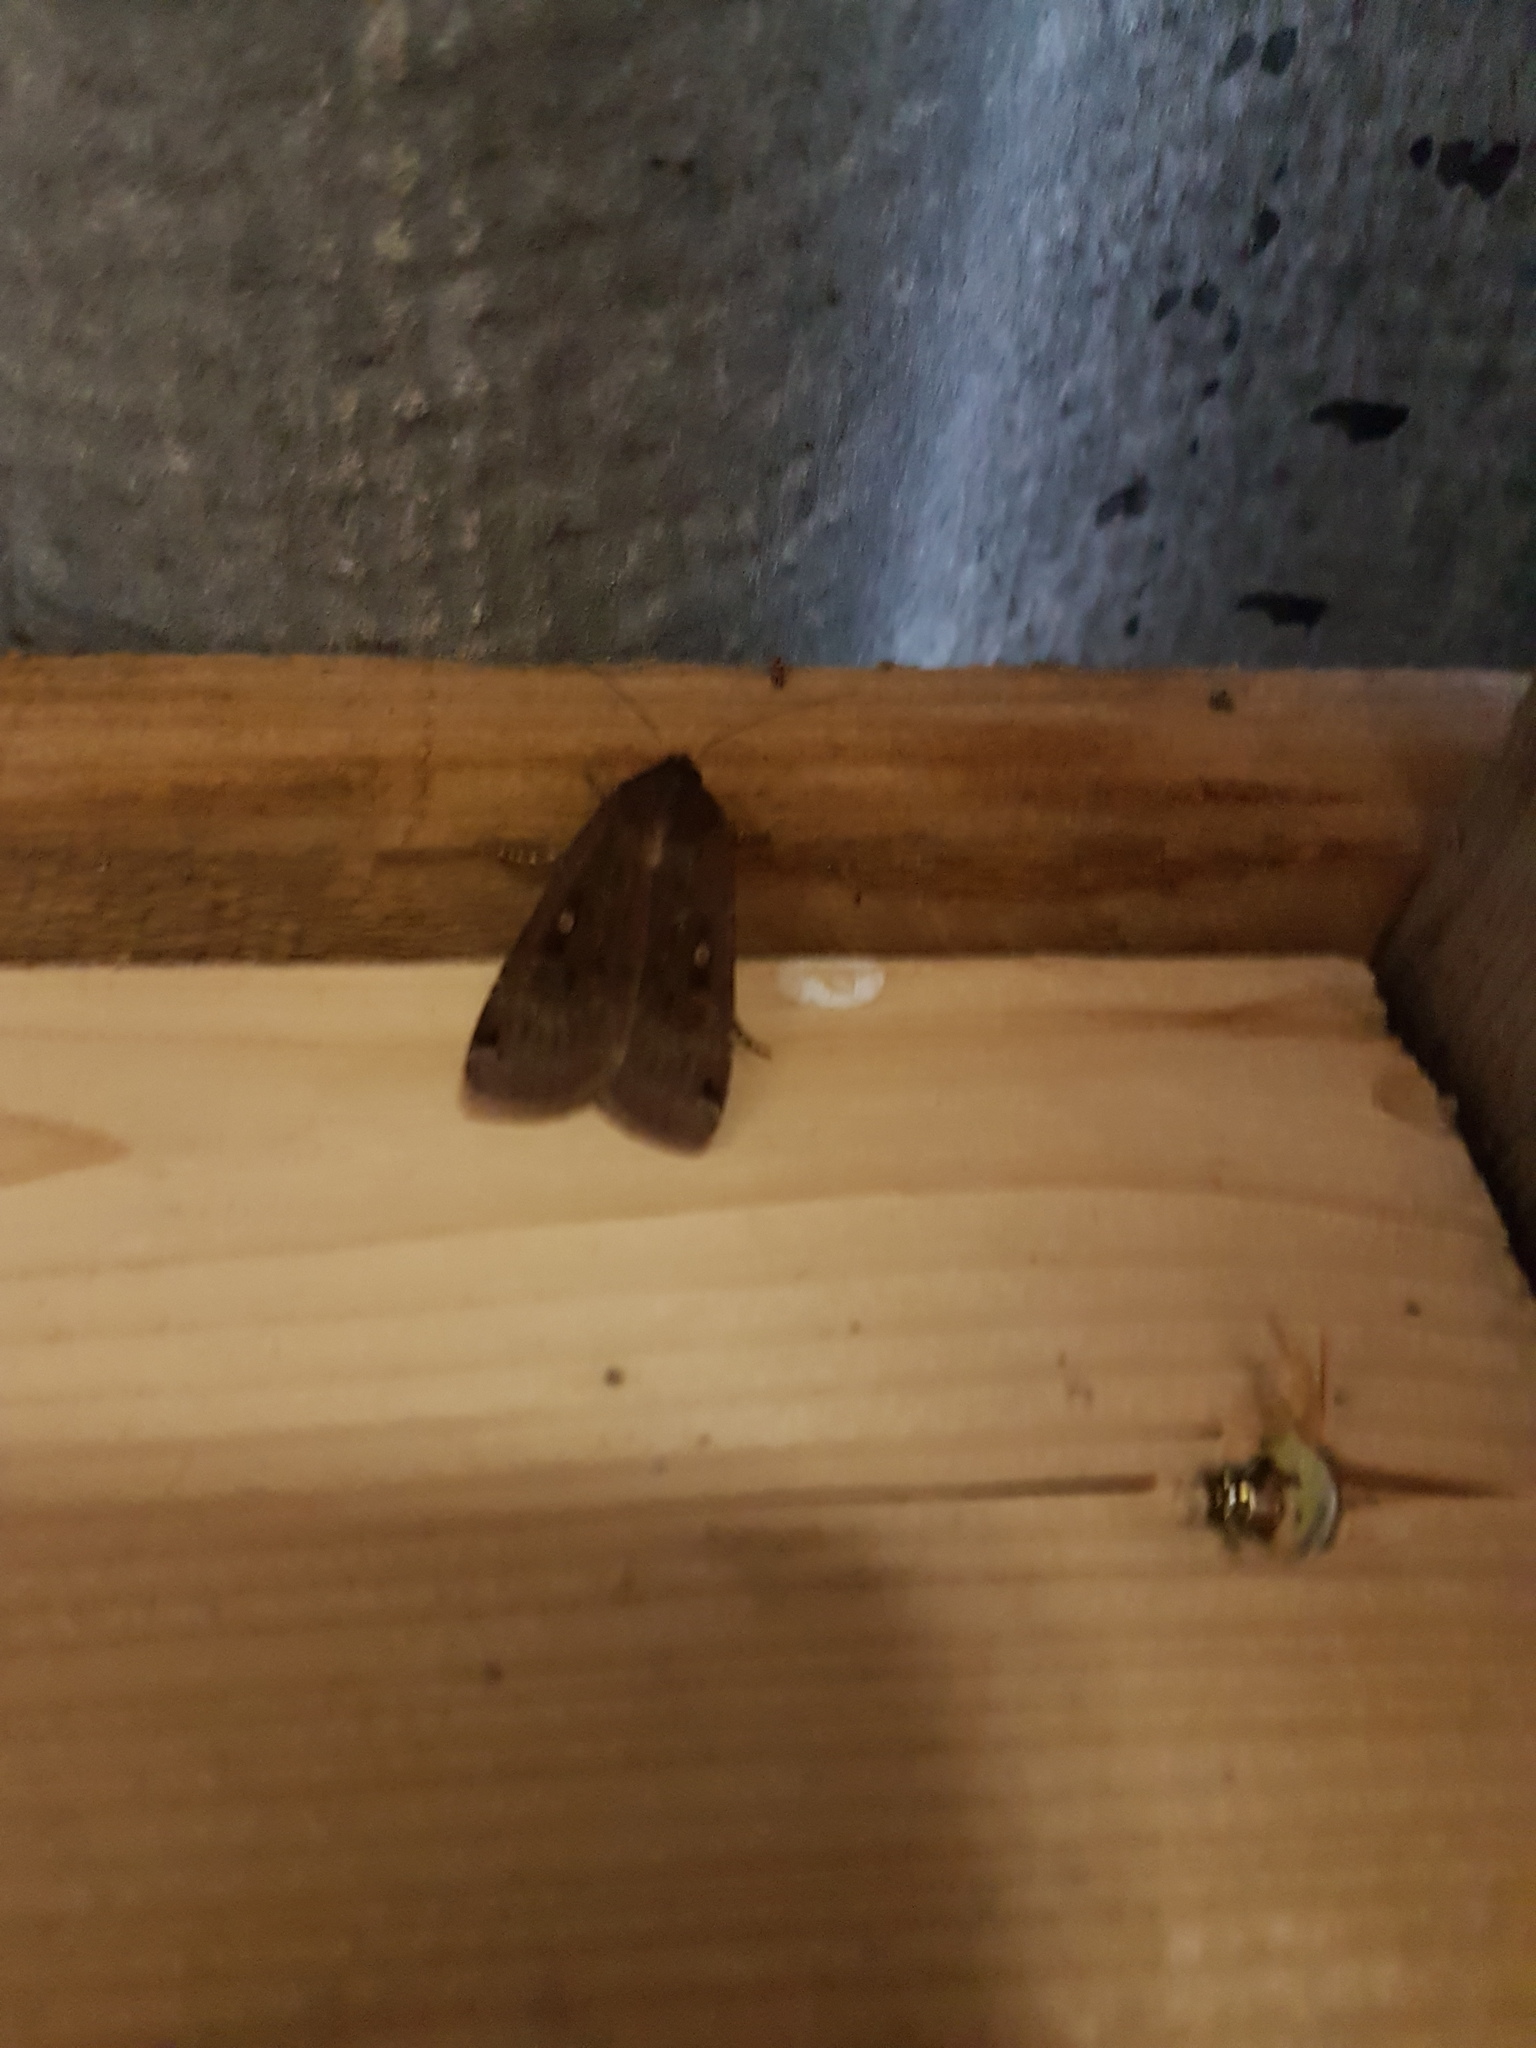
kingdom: Animalia
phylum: Arthropoda
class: Insecta
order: Lepidoptera
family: Noctuidae
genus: Noctua
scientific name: Noctua pronuba
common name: Large yellow underwing
